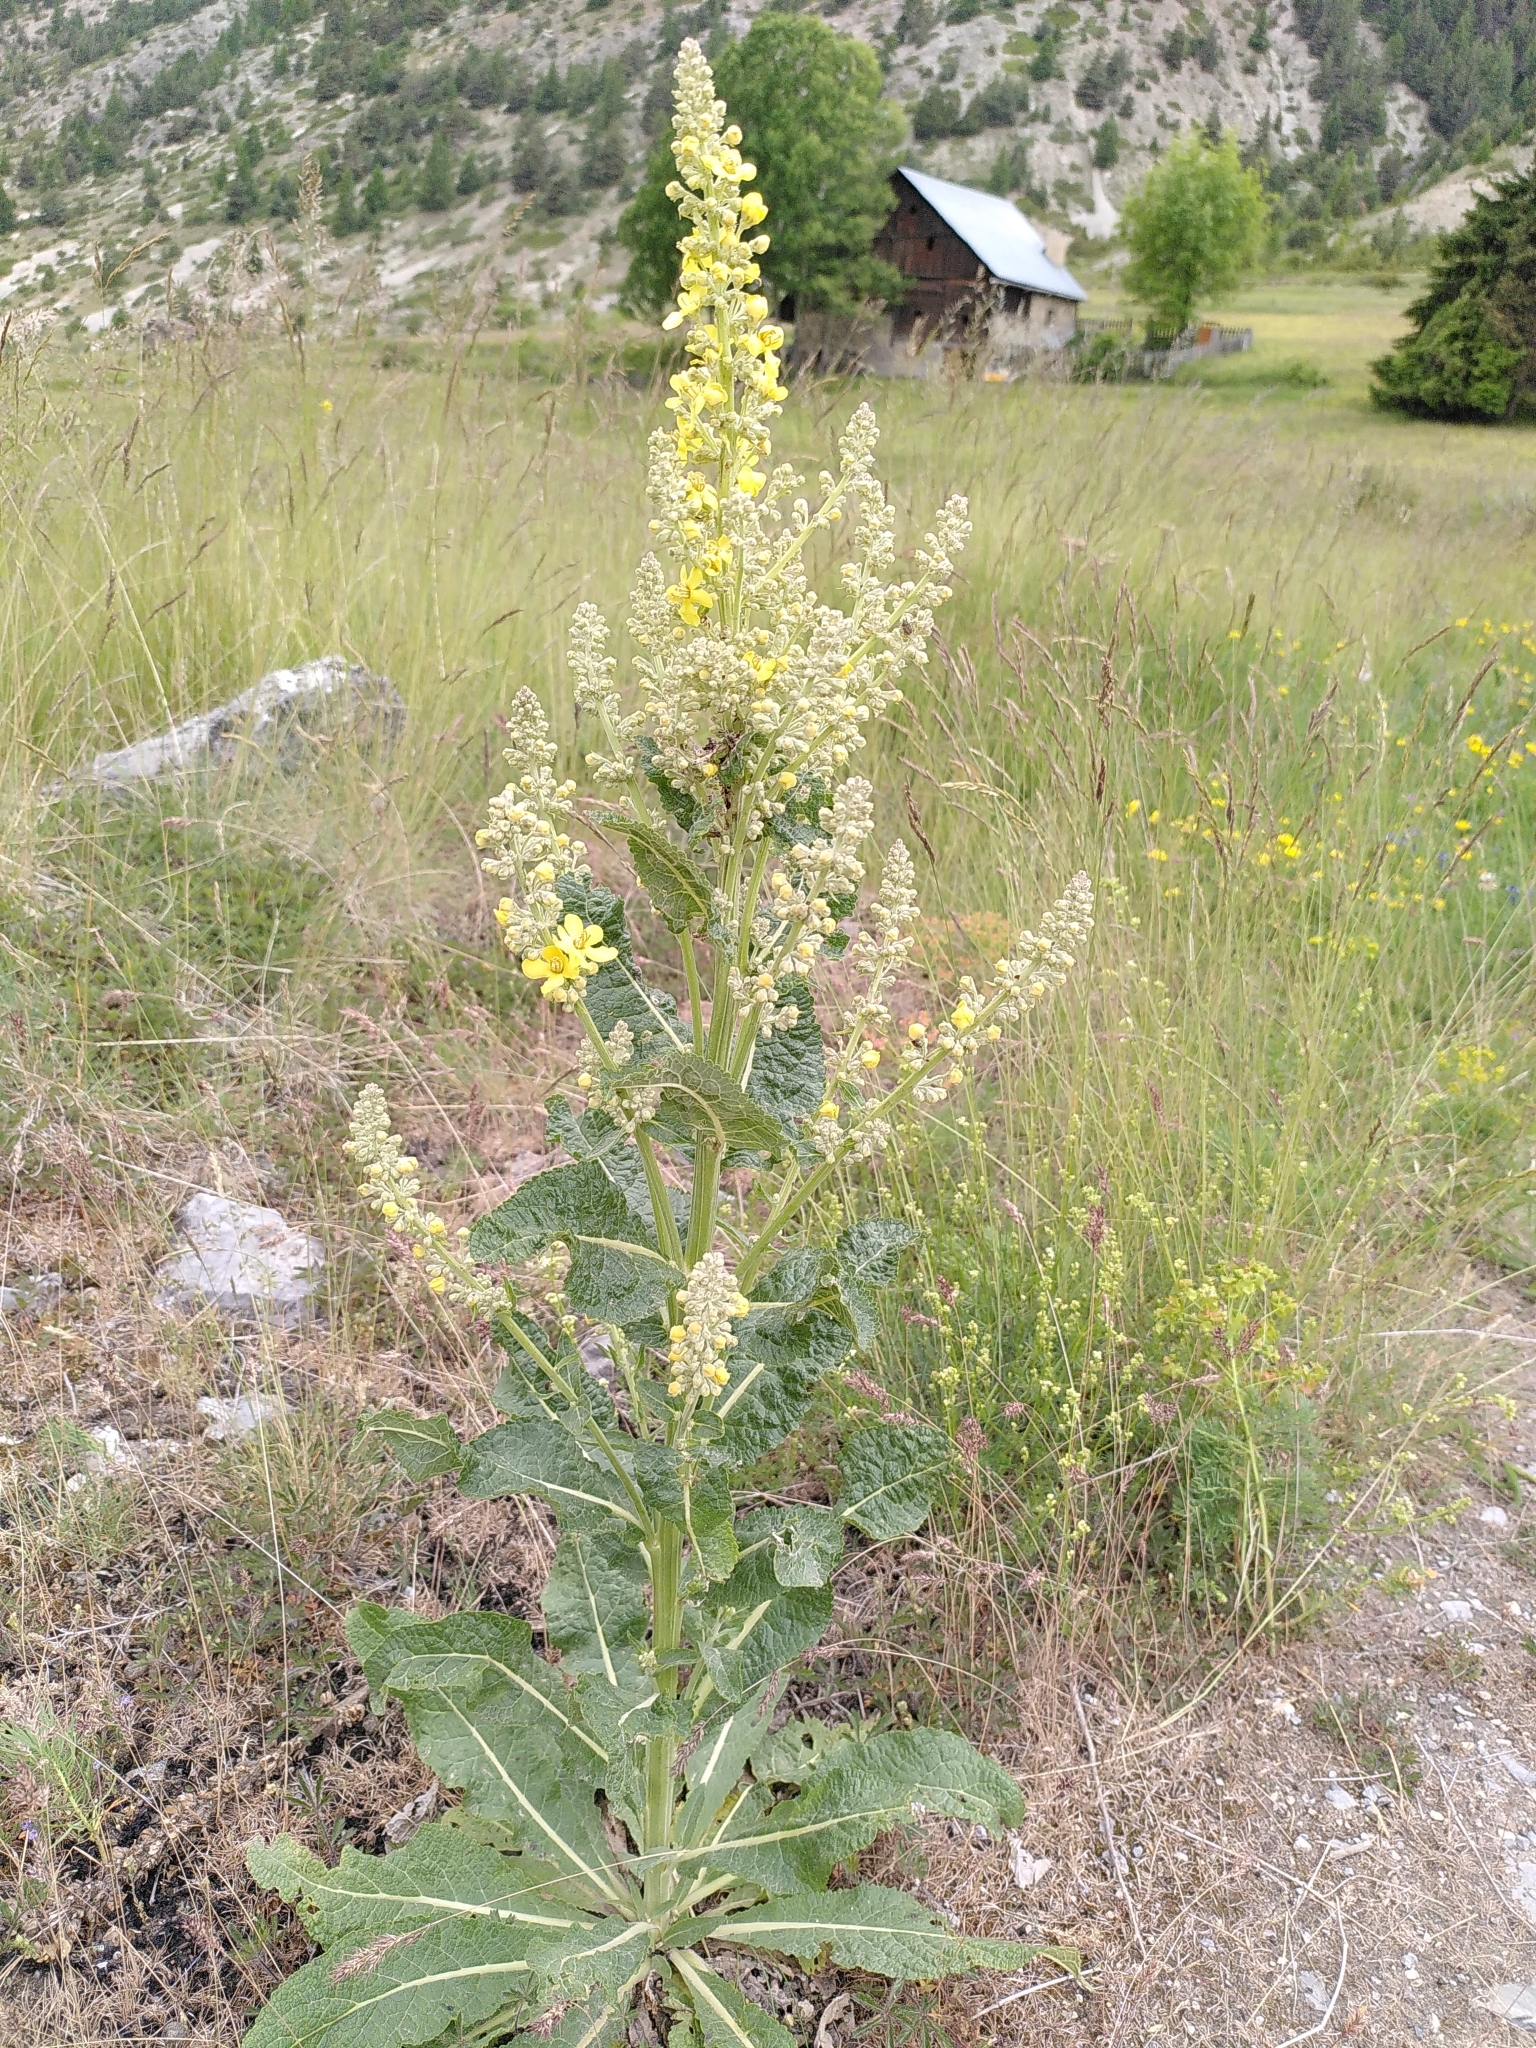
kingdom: Plantae
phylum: Tracheophyta
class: Magnoliopsida
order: Lamiales
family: Scrophulariaceae
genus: Verbascum
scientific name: Verbascum lychnitis
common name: White mullein
